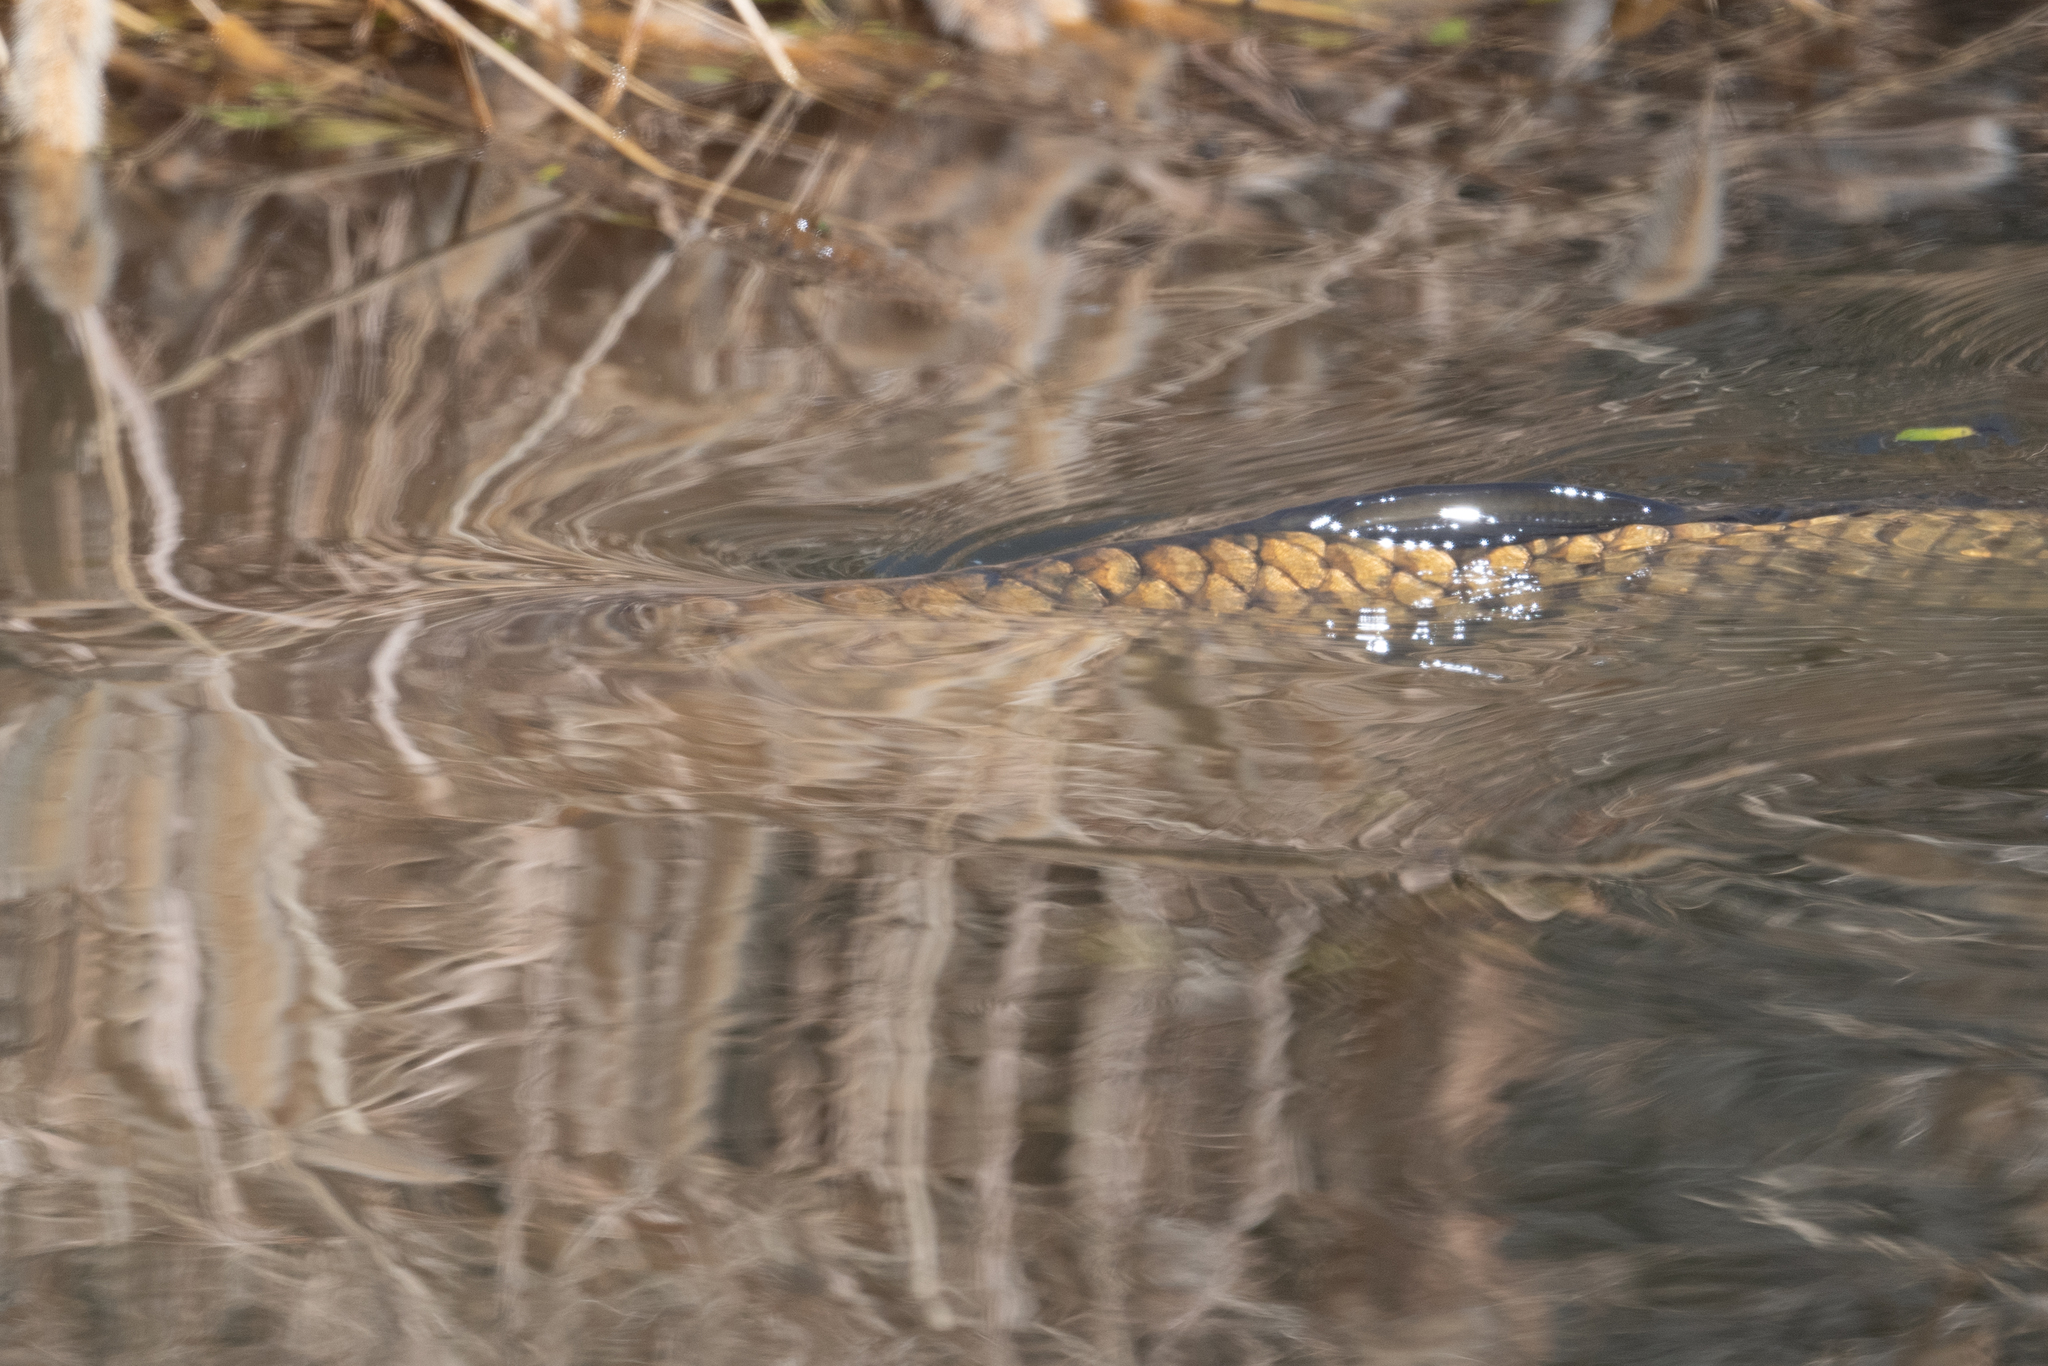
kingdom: Animalia
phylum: Chordata
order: Cypriniformes
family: Cyprinidae
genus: Cyprinus
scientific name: Cyprinus carpio
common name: Common carp
